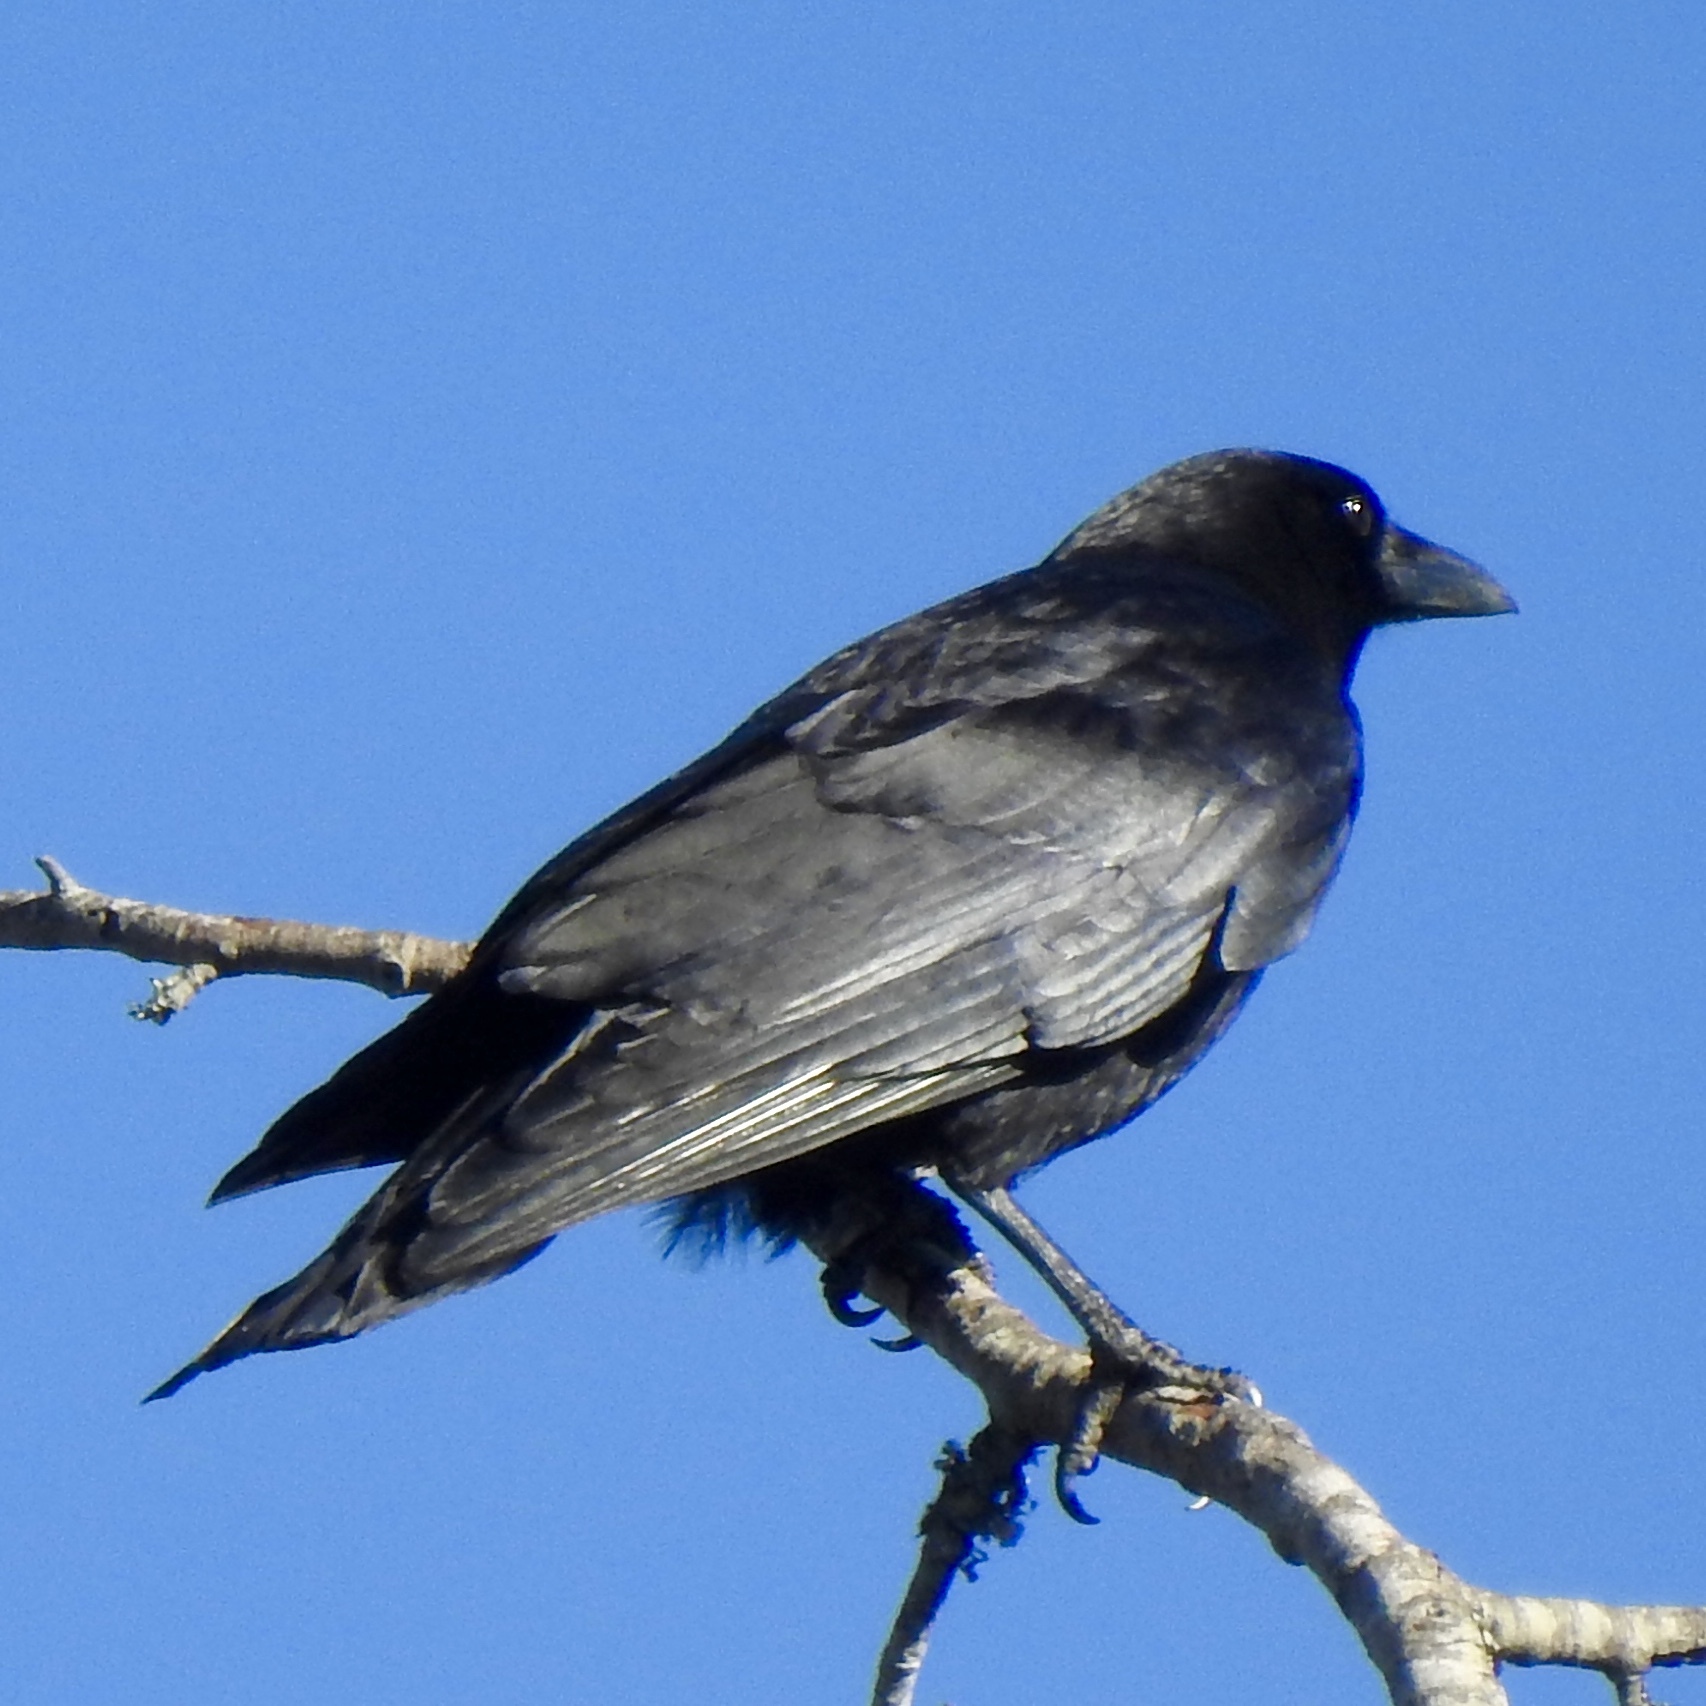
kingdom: Animalia
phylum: Chordata
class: Aves
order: Passeriformes
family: Corvidae
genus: Corvus
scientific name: Corvus brachyrhynchos
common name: American crow
